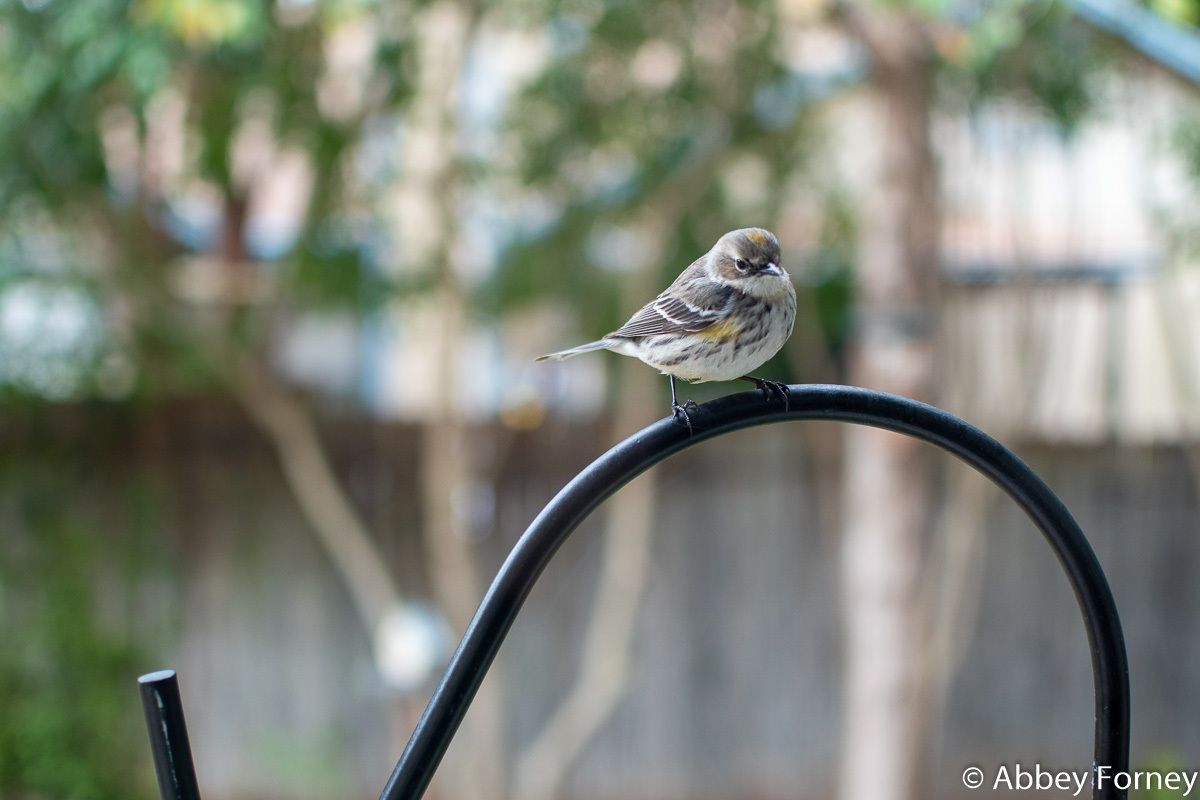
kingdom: Animalia
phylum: Chordata
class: Aves
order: Passeriformes
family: Parulidae
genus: Setophaga
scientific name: Setophaga coronata
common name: Myrtle warbler
